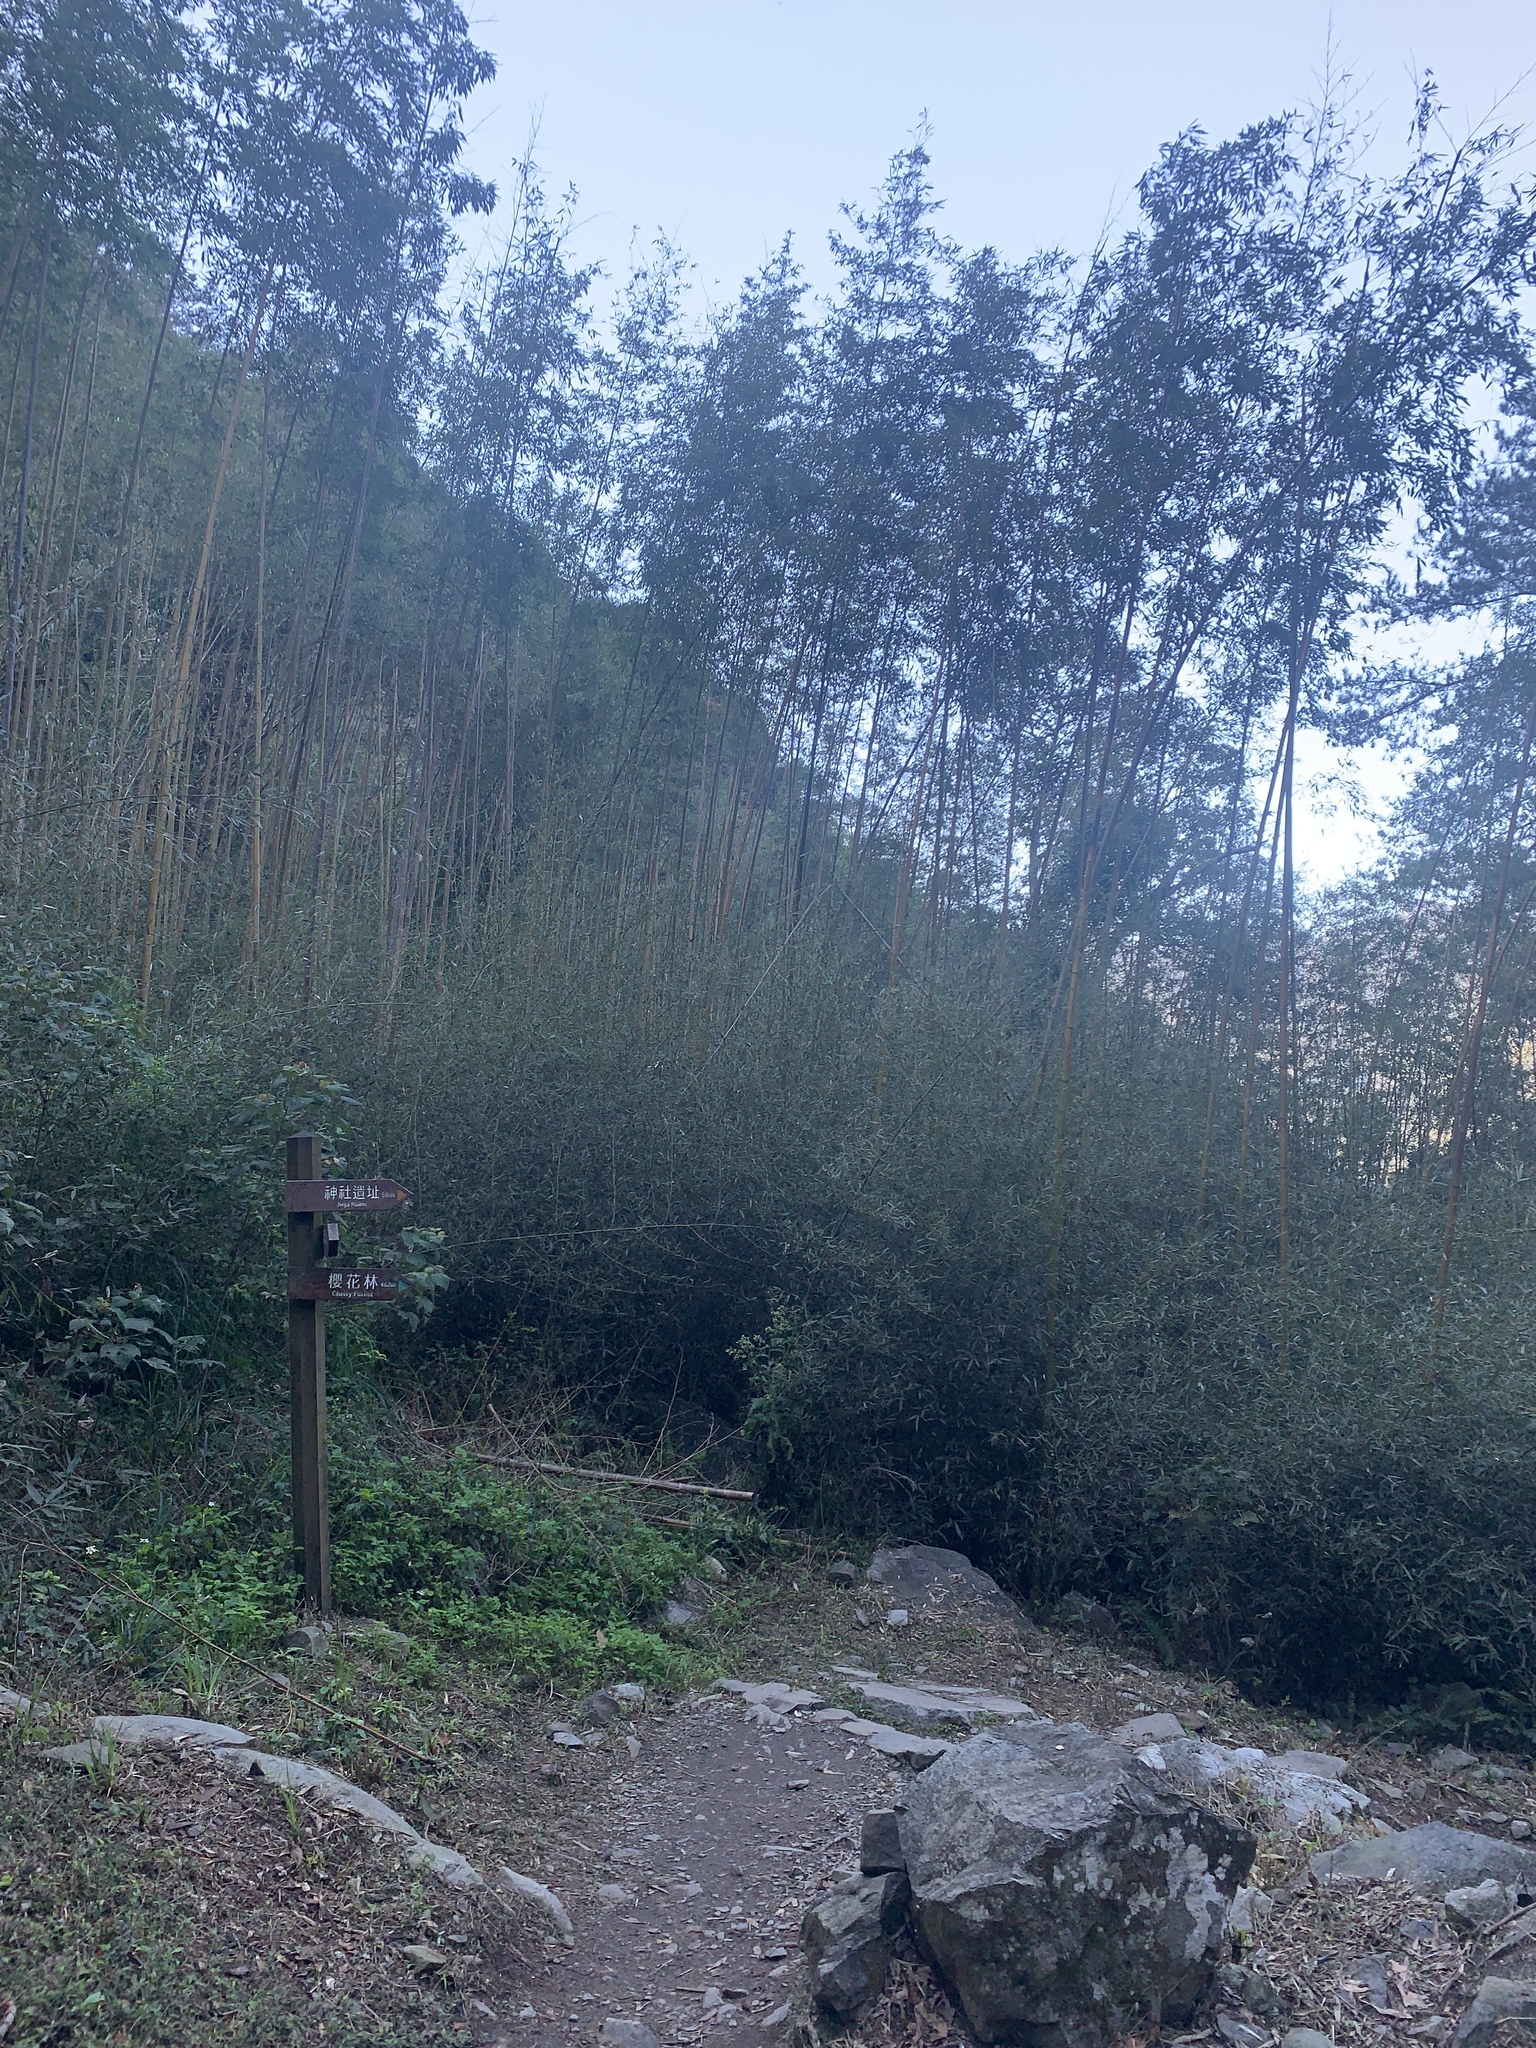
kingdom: Plantae
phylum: Tracheophyta
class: Liliopsida
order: Poales
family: Poaceae
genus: Phyllostachys
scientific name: Phyllostachys makinoi
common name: Makino bamboo
